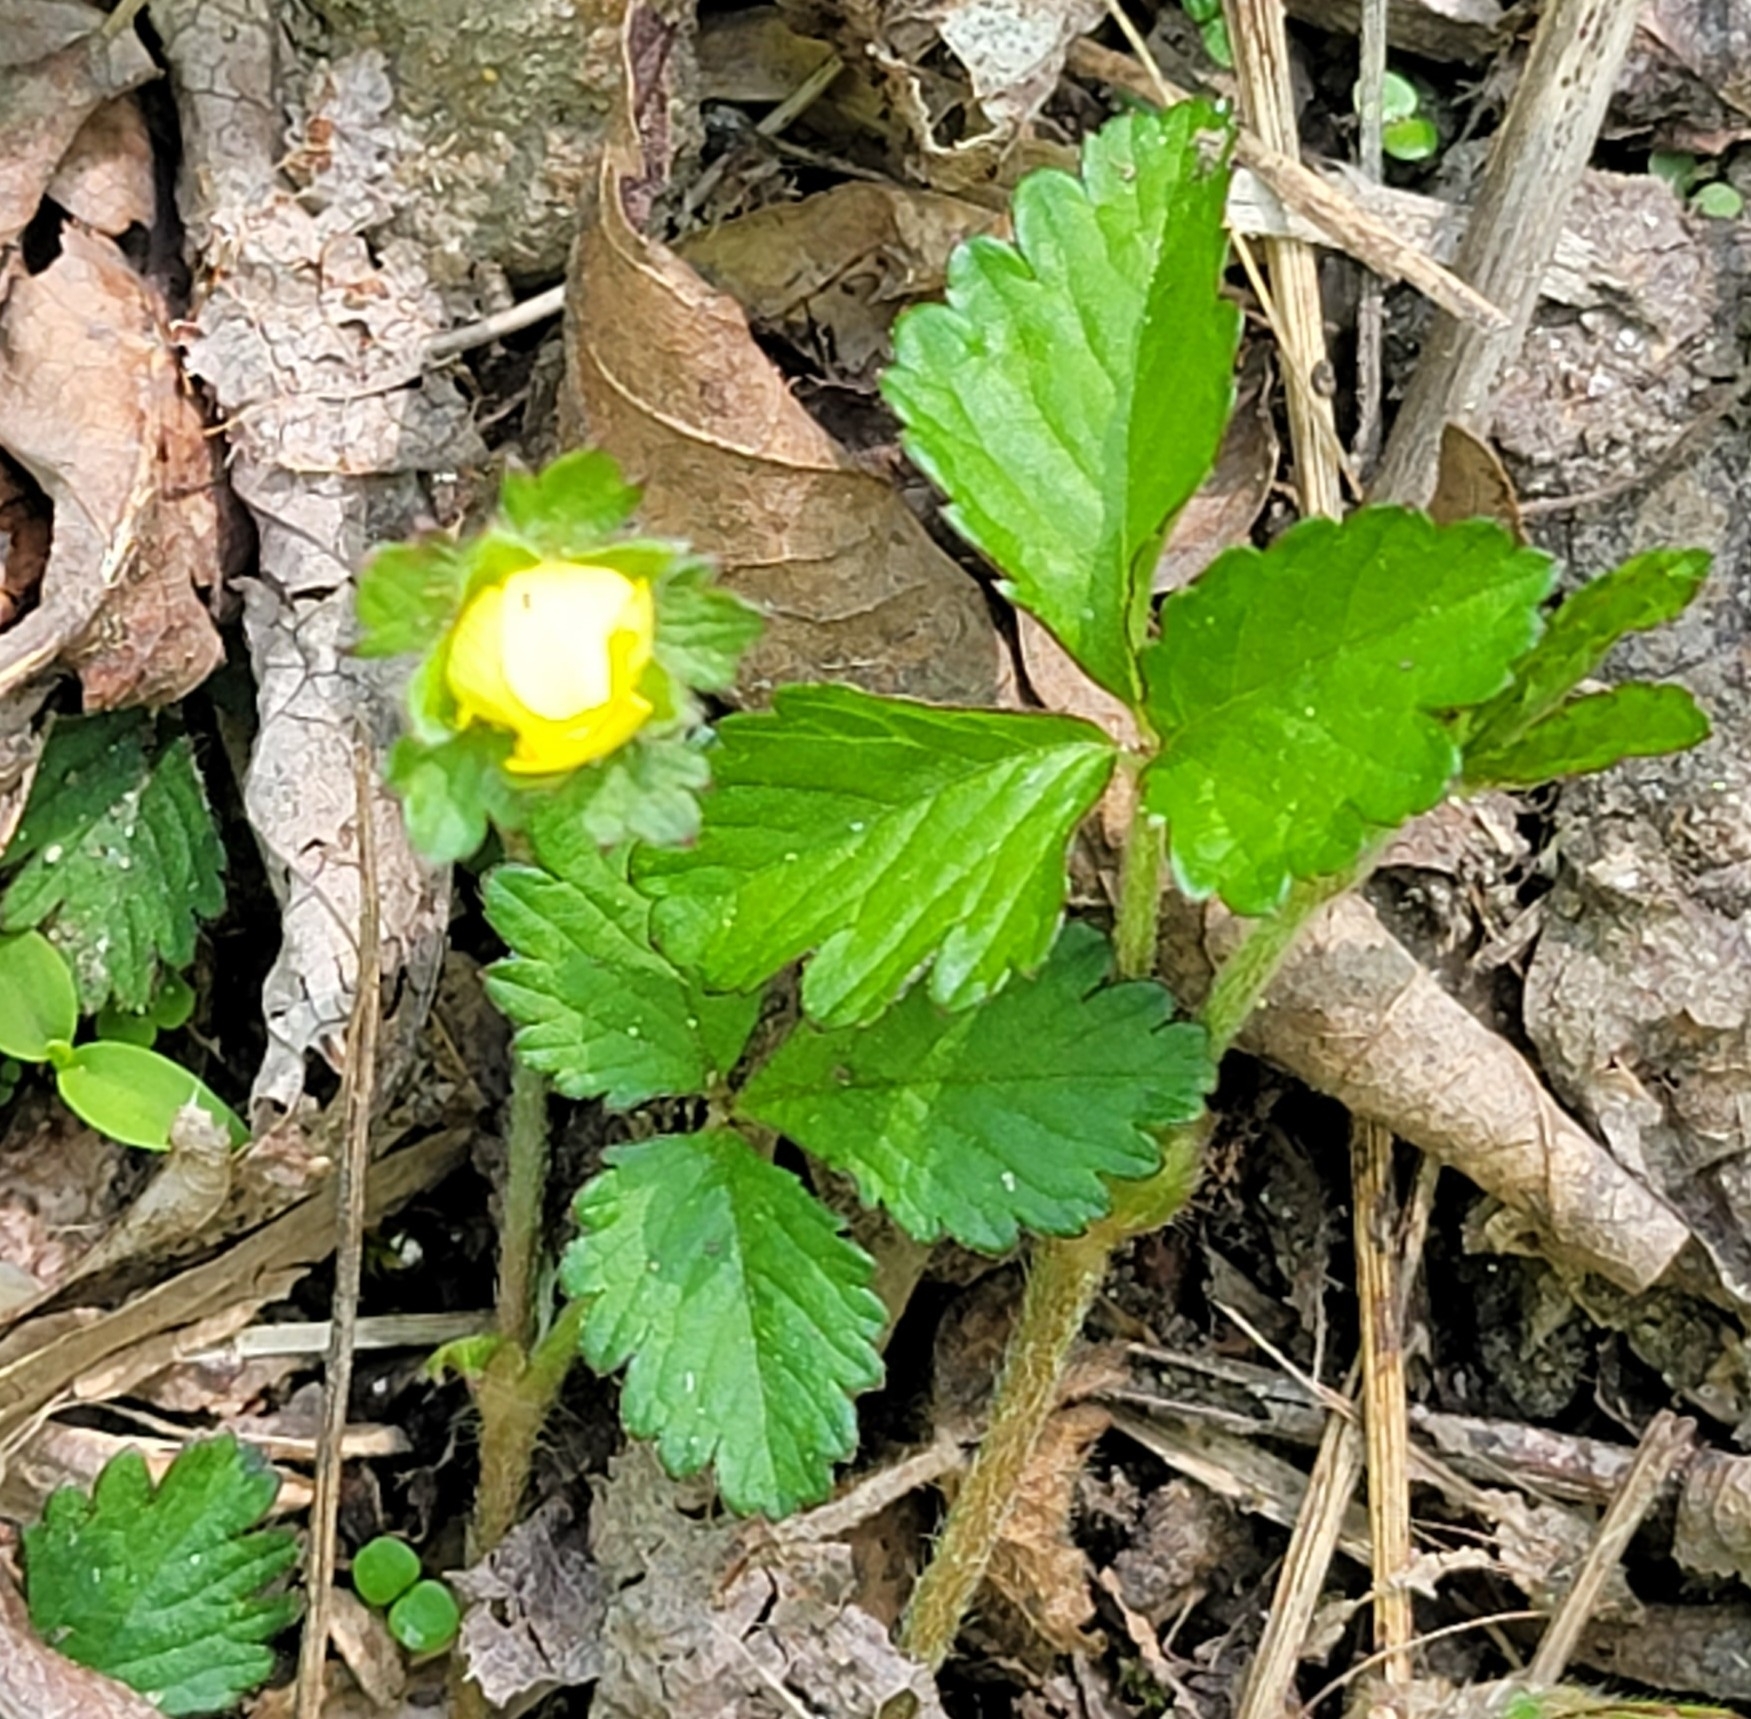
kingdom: Plantae
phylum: Tracheophyta
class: Magnoliopsida
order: Rosales
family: Rosaceae
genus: Potentilla
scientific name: Potentilla indica
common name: Yellow-flowered strawberry
